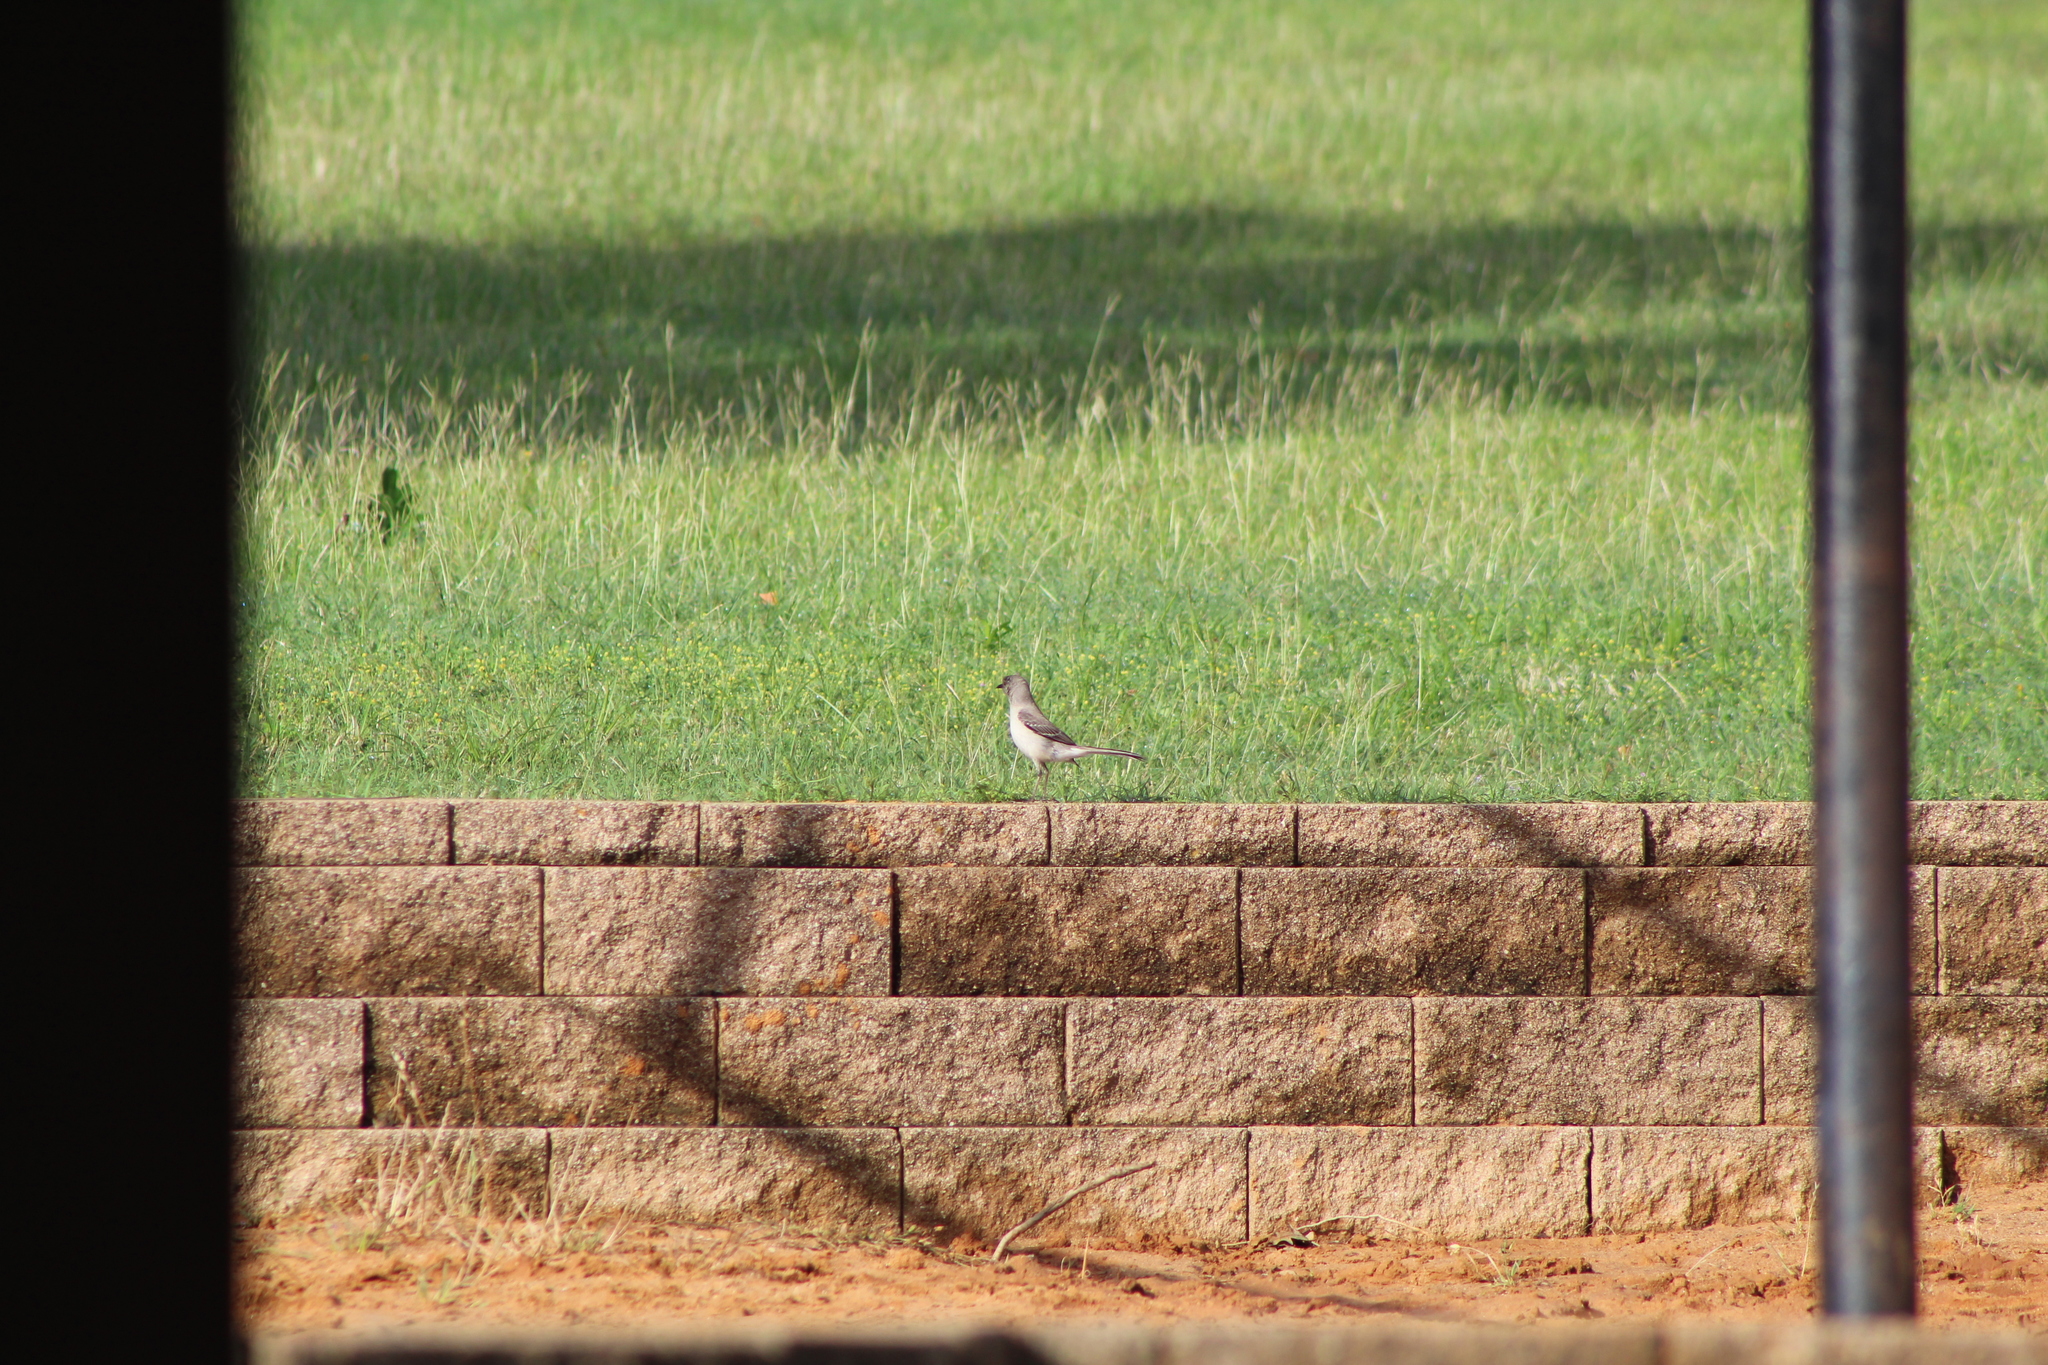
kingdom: Animalia
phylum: Chordata
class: Aves
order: Passeriformes
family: Mimidae
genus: Mimus
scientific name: Mimus polyglottos
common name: Northern mockingbird
